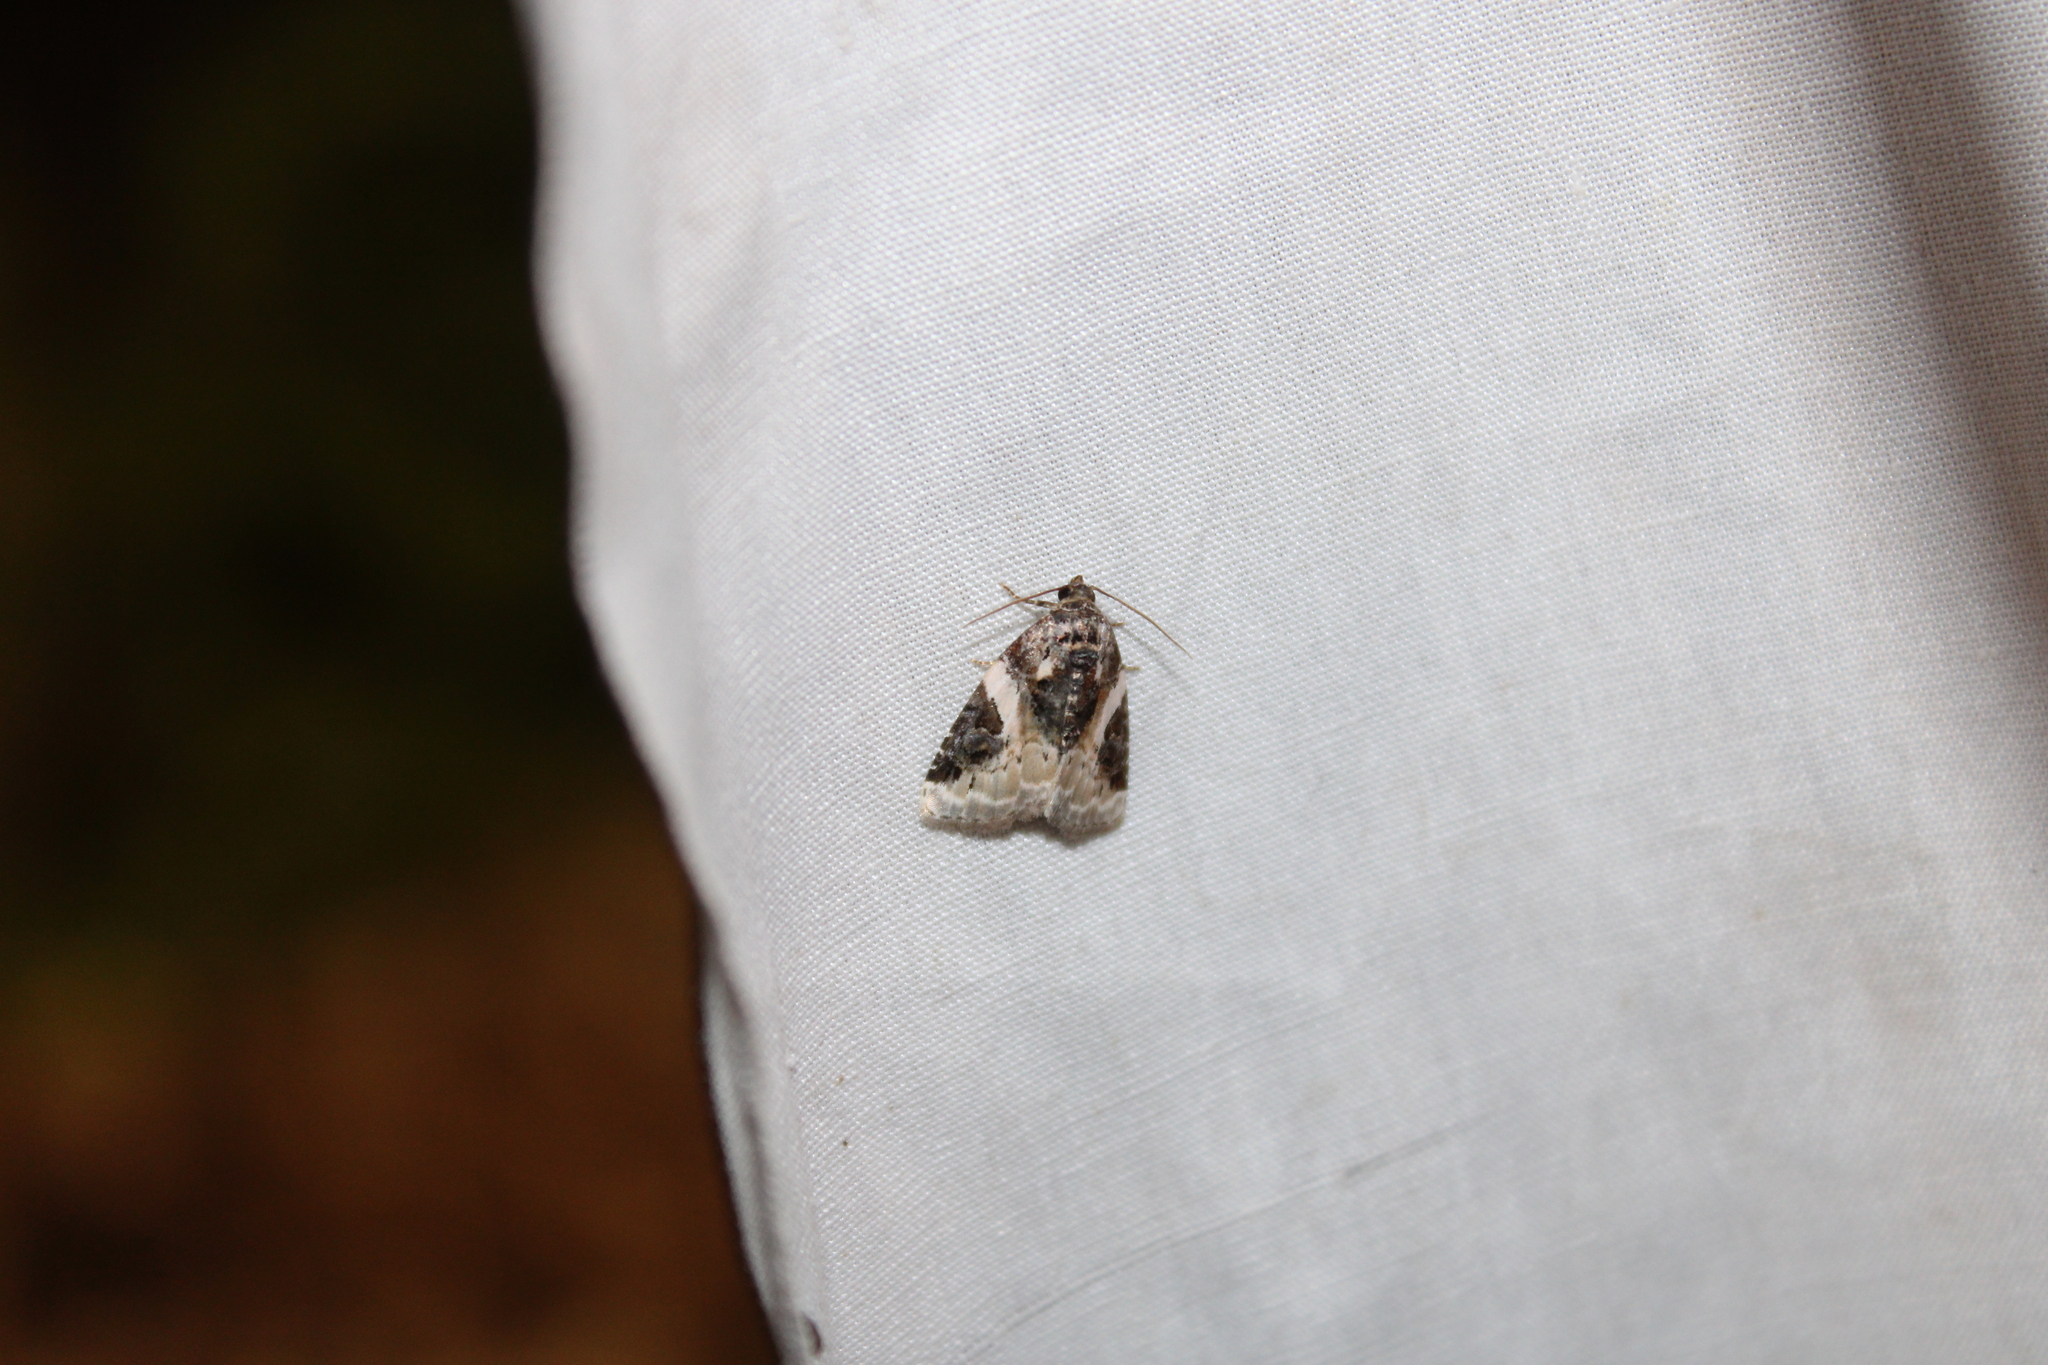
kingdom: Animalia
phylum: Arthropoda
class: Insecta
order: Lepidoptera
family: Noctuidae
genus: Pseudeustrotia
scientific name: Pseudeustrotia carneola
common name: Pink-barred lithacodia moth
